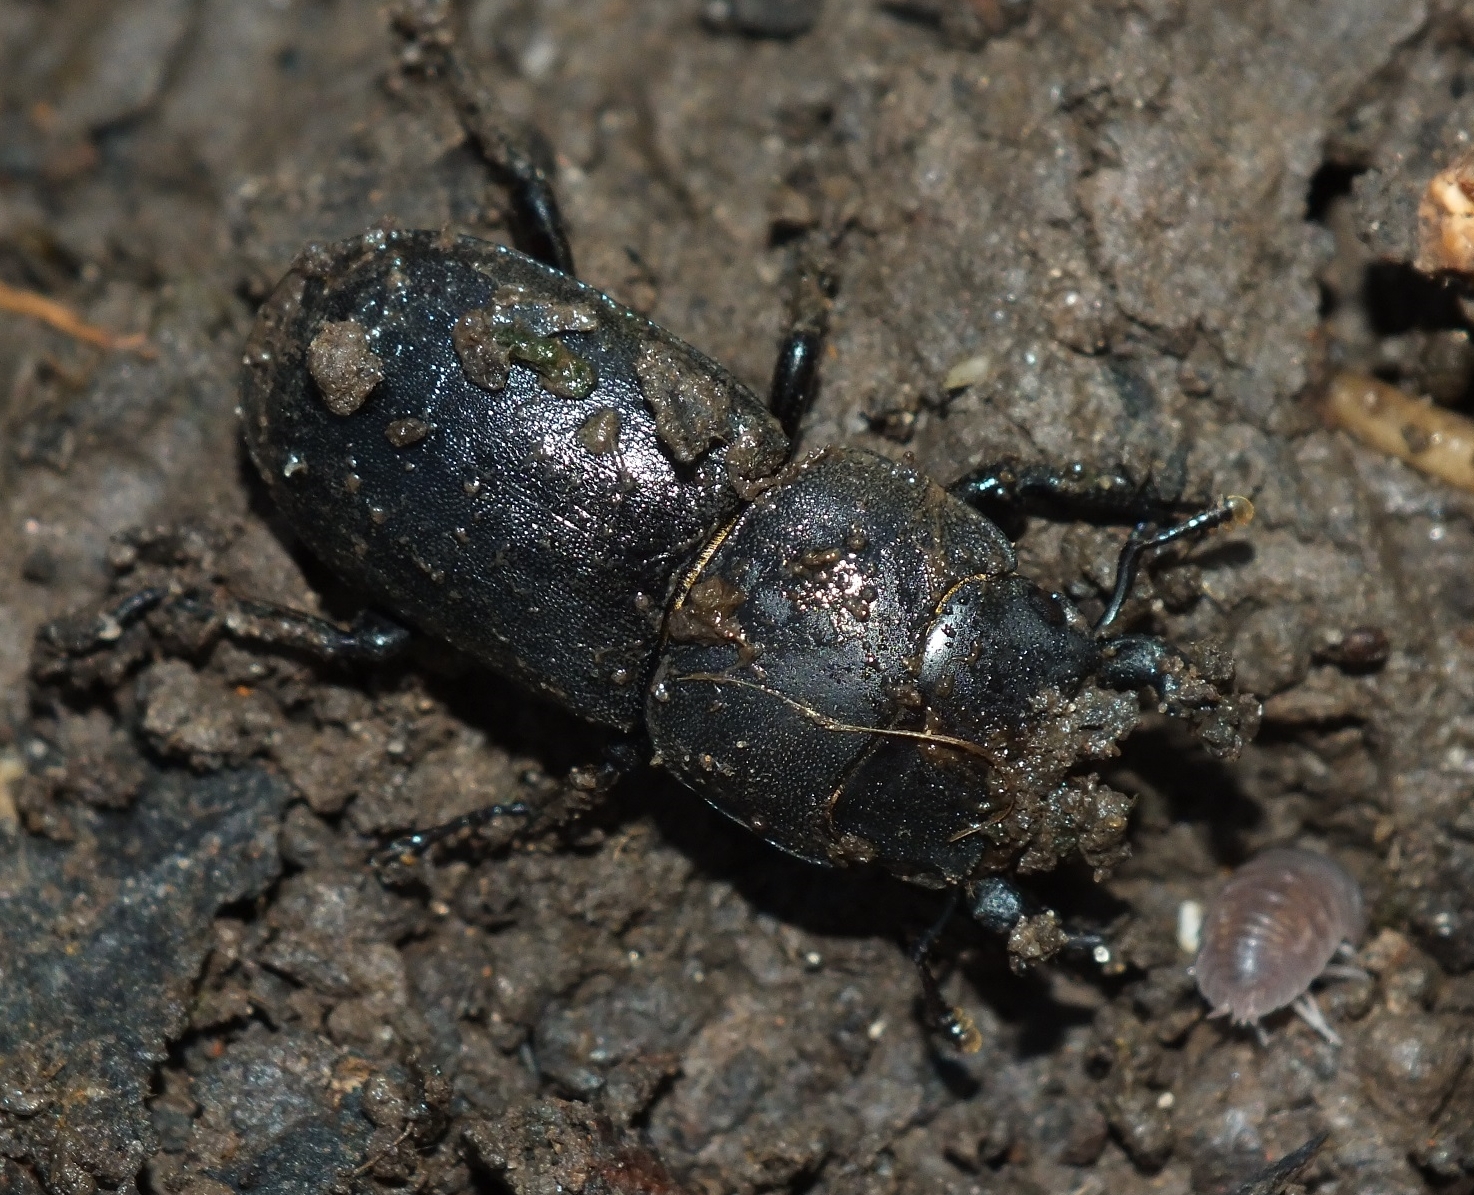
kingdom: Animalia
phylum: Arthropoda
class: Insecta
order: Coleoptera
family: Lucanidae
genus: Dorcus
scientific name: Dorcus parallelipipedus
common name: Lesser stag beetle
